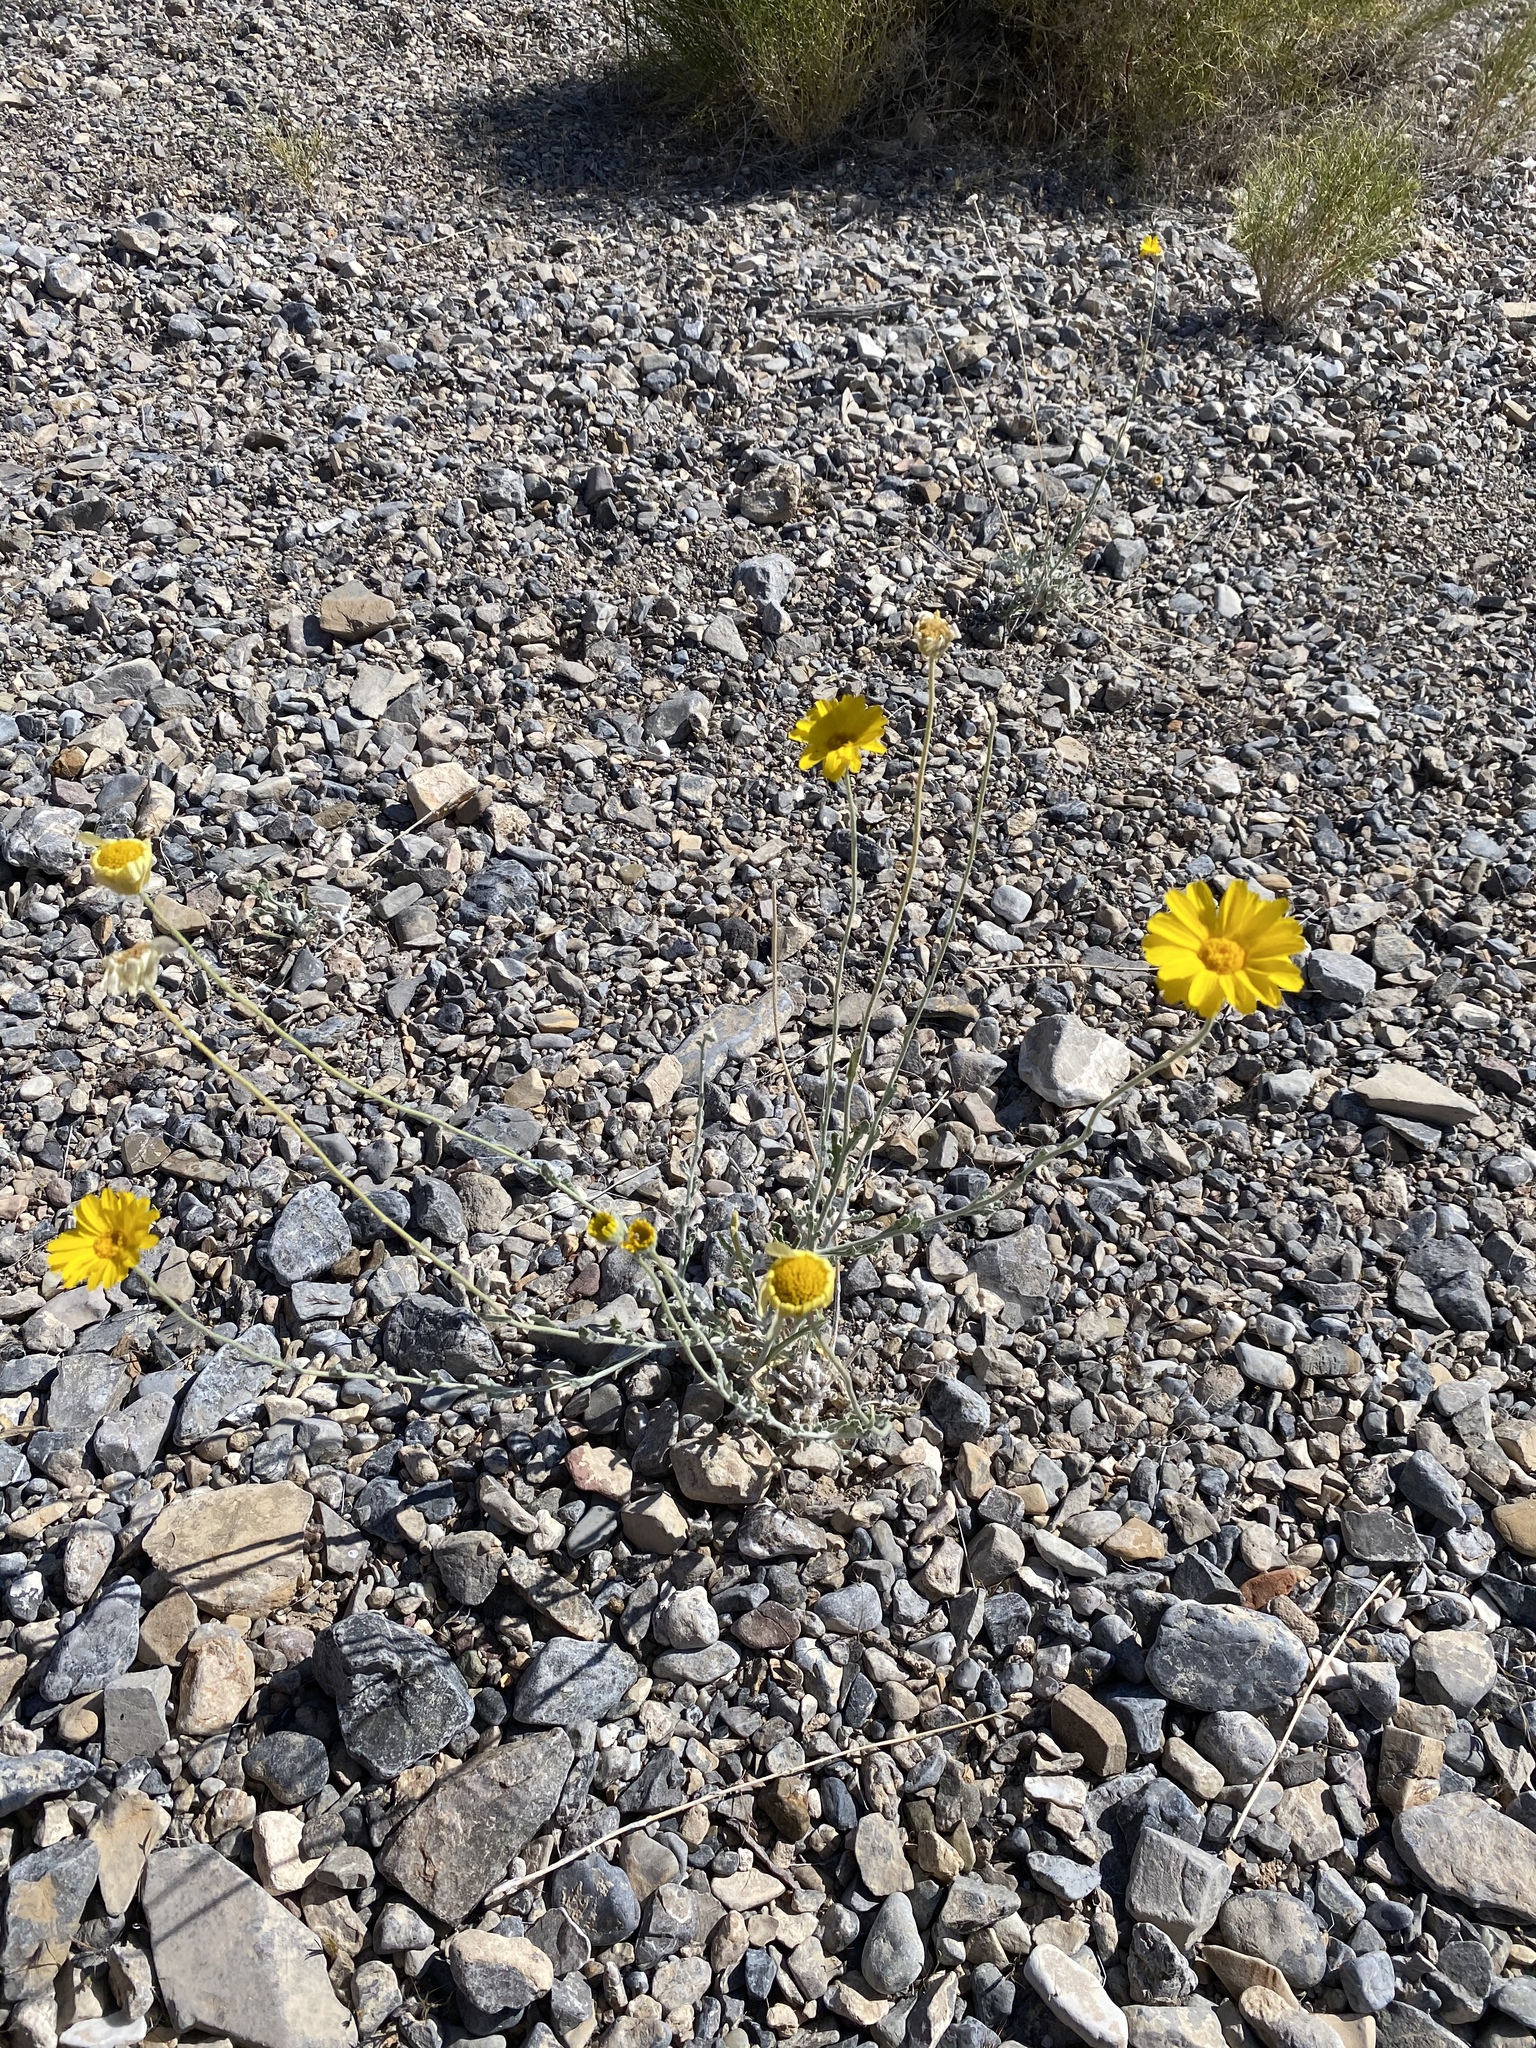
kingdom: Plantae
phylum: Tracheophyta
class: Magnoliopsida
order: Asterales
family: Asteraceae
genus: Baileya
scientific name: Baileya multiradiata
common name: Desert-marigold
